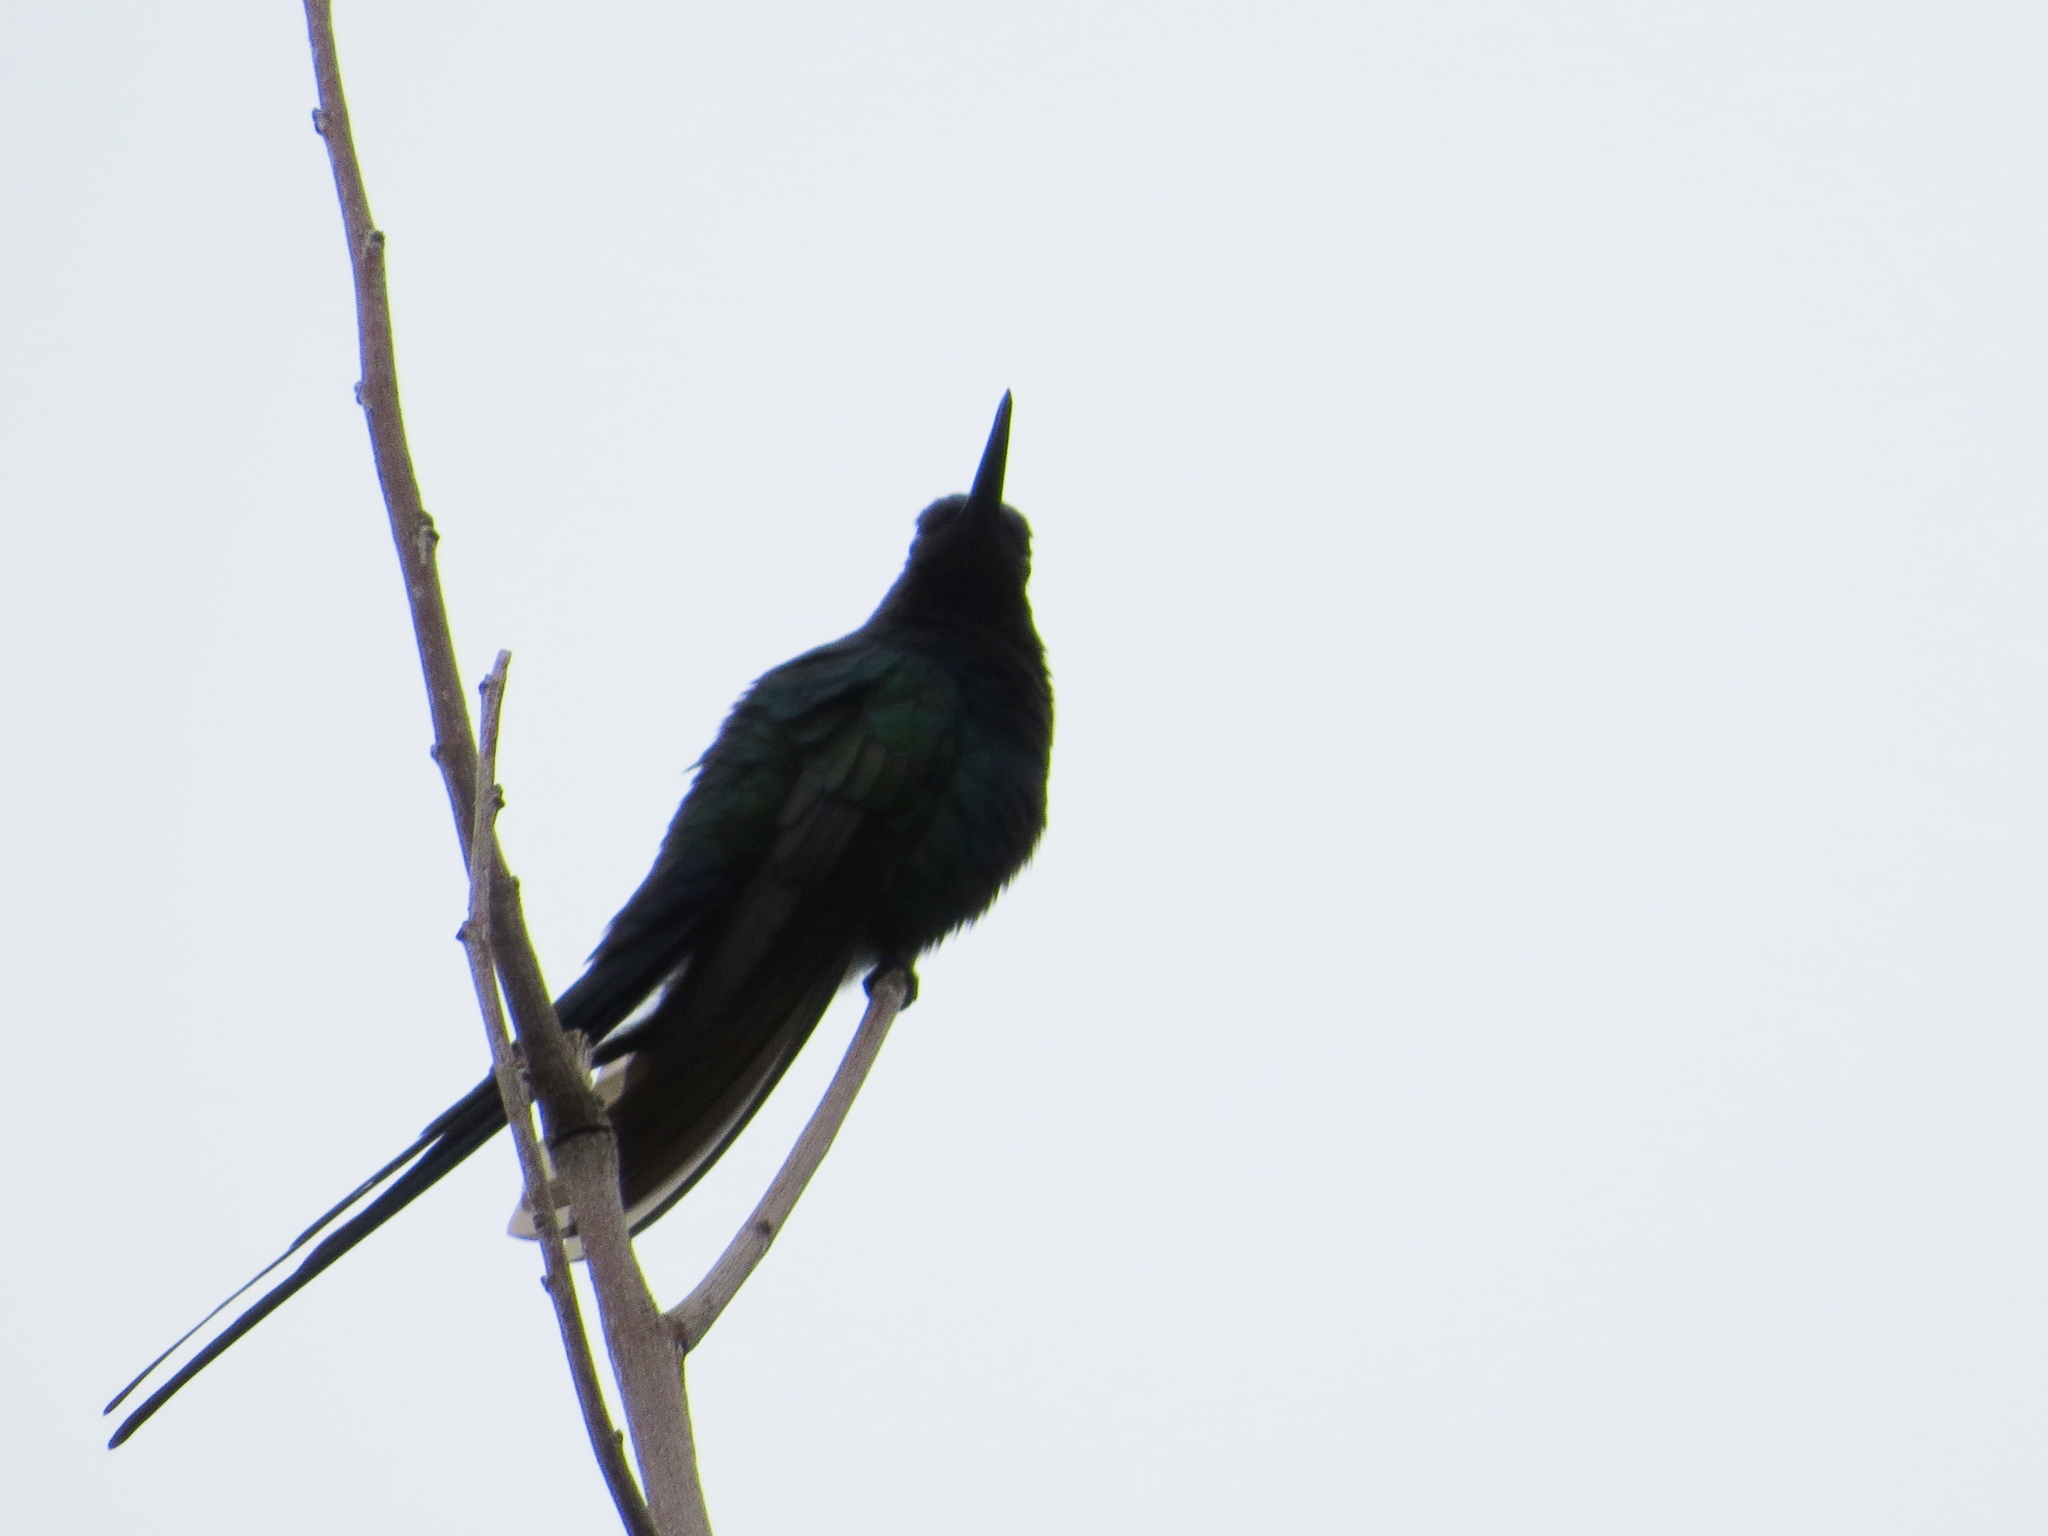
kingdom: Animalia
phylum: Chordata
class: Aves
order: Apodiformes
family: Trochilidae
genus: Eupetomena
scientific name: Eupetomena macroura
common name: Swallow-tailed hummingbird
